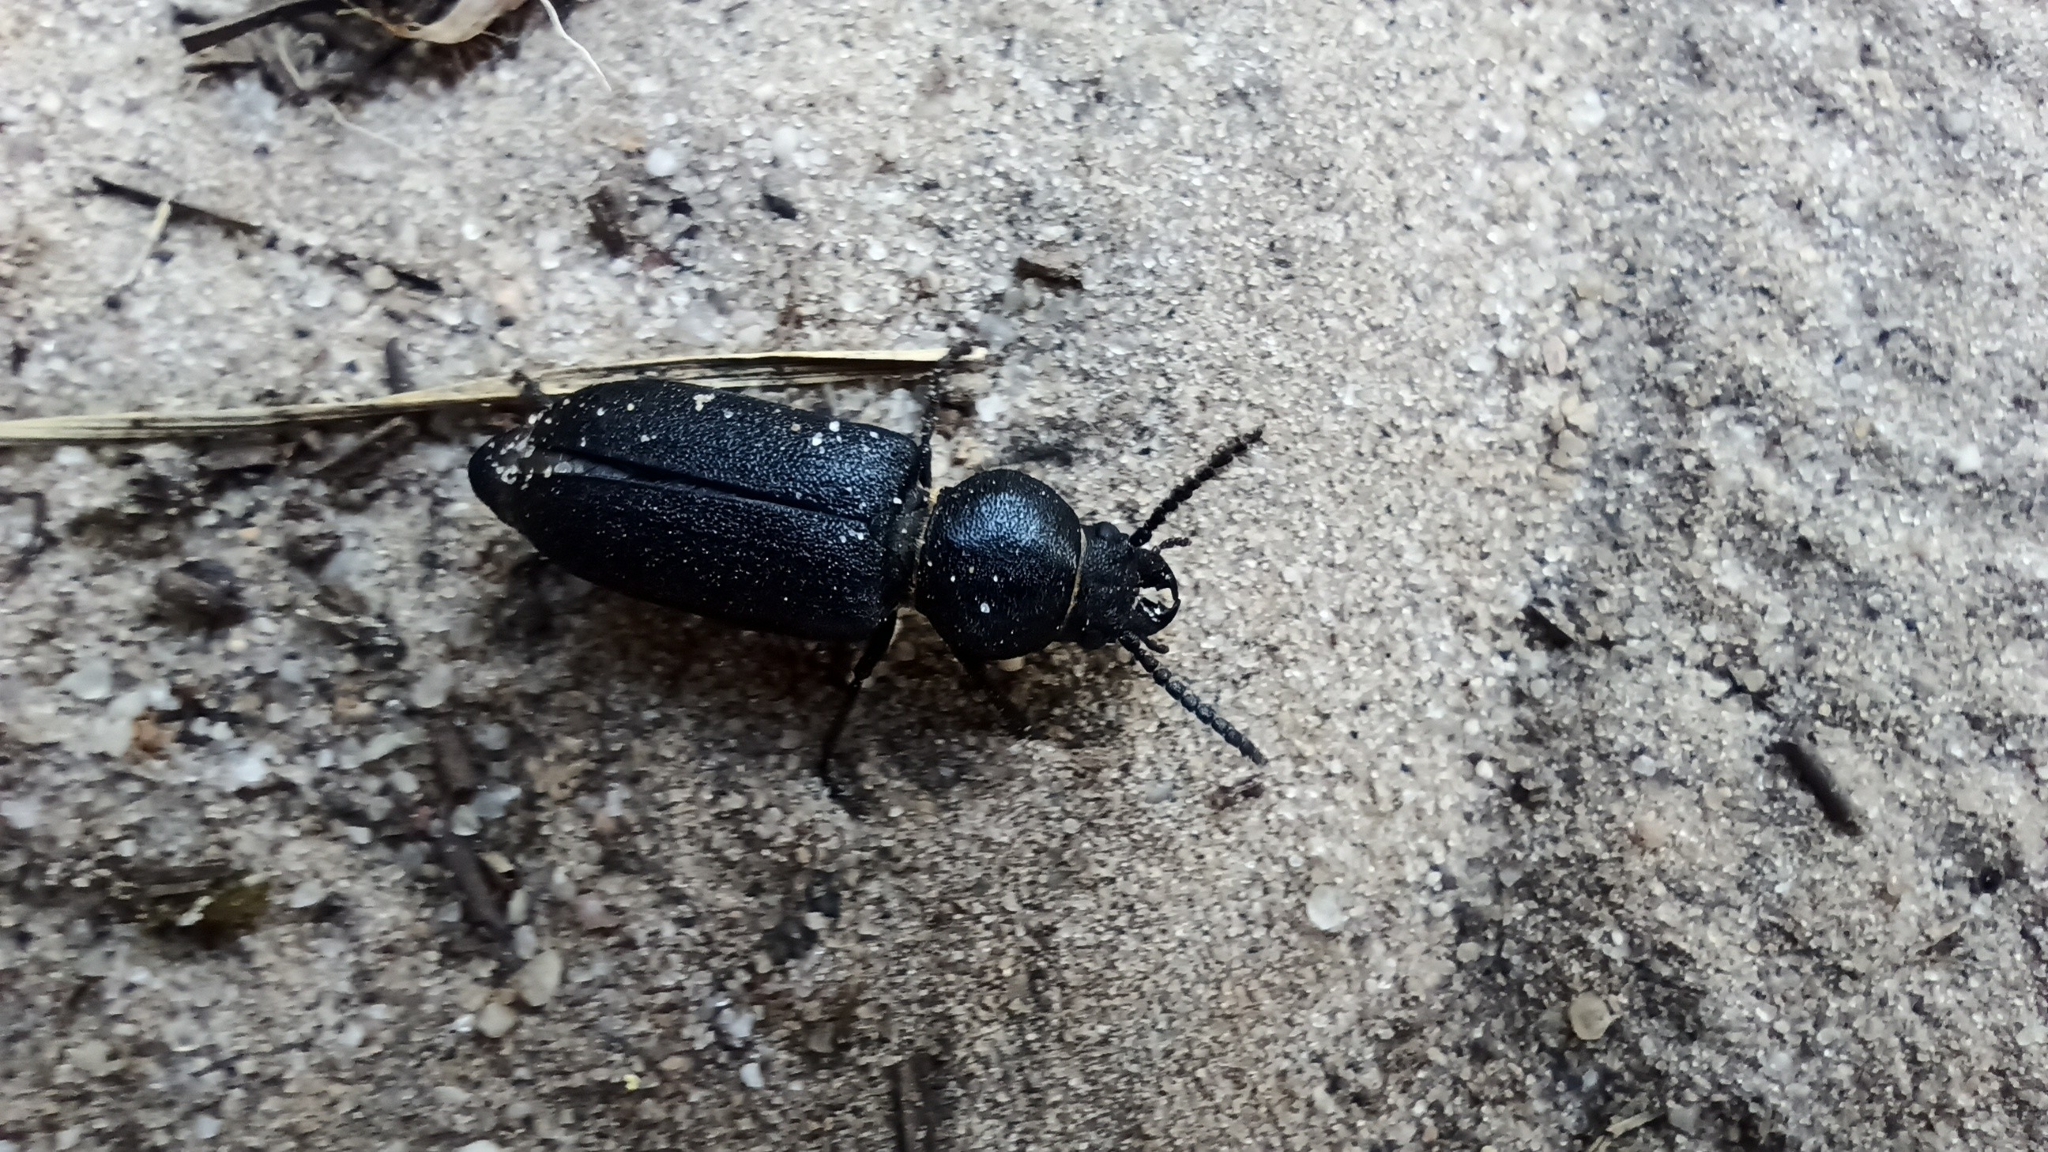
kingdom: Animalia
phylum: Arthropoda
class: Insecta
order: Coleoptera
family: Cerambycidae
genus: Spondylis
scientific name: Spondylis buprestoides
